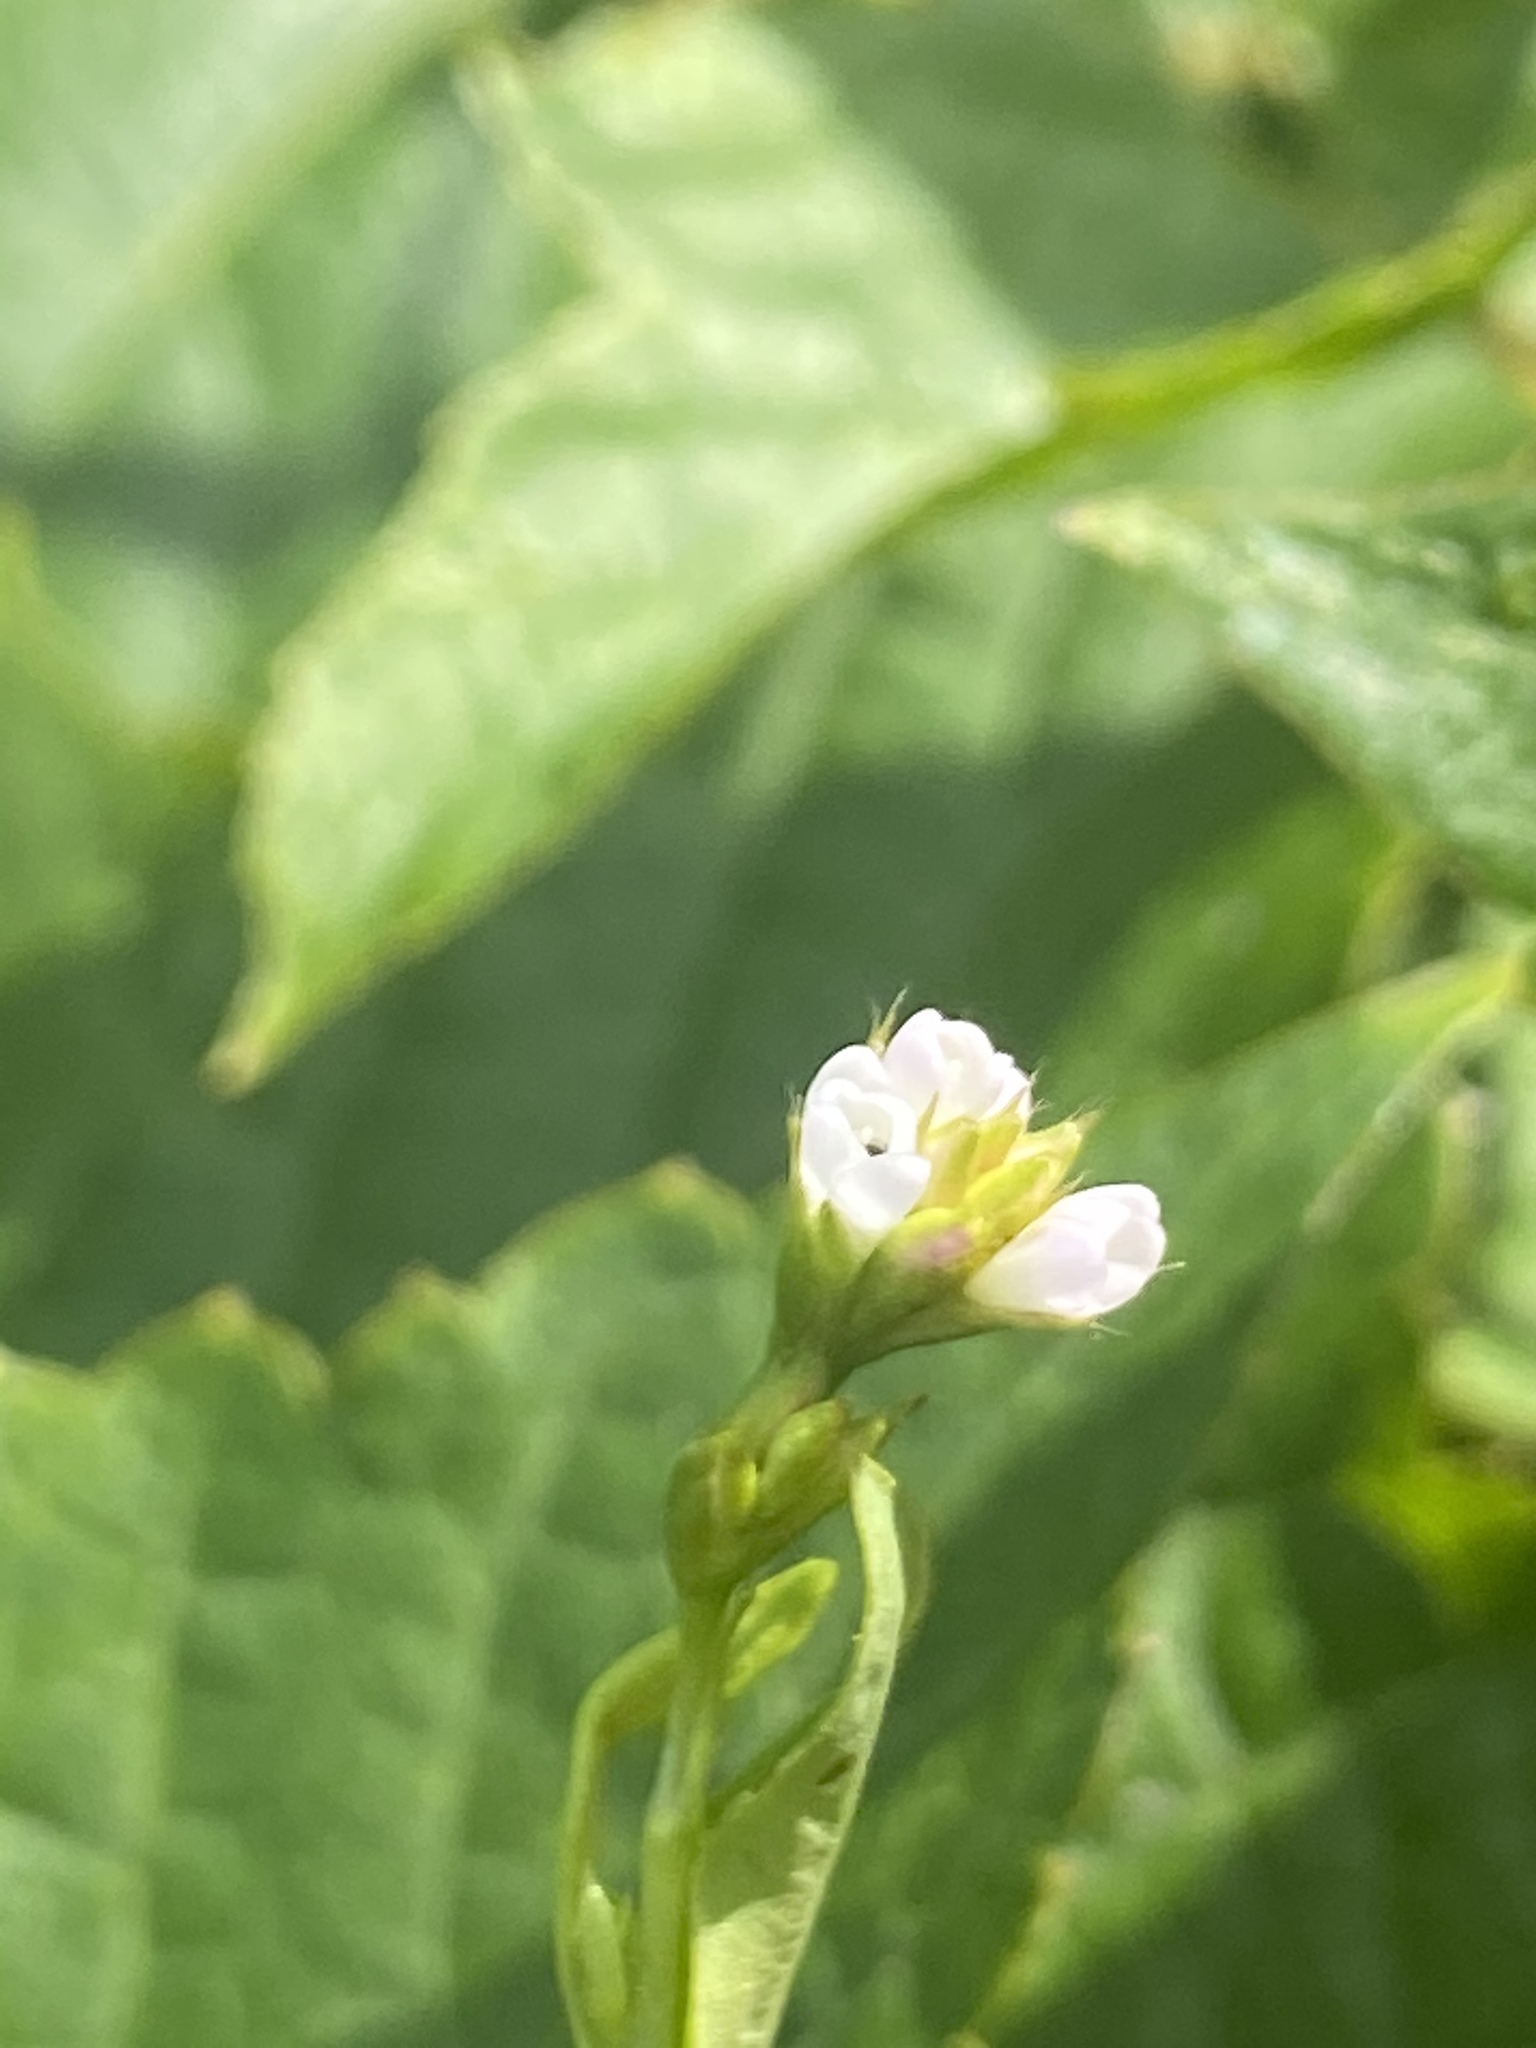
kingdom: Plantae
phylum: Tracheophyta
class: Magnoliopsida
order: Caryophyllales
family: Polygonaceae
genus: Persicaria
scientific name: Persicaria sagittata
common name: American tearthumb
